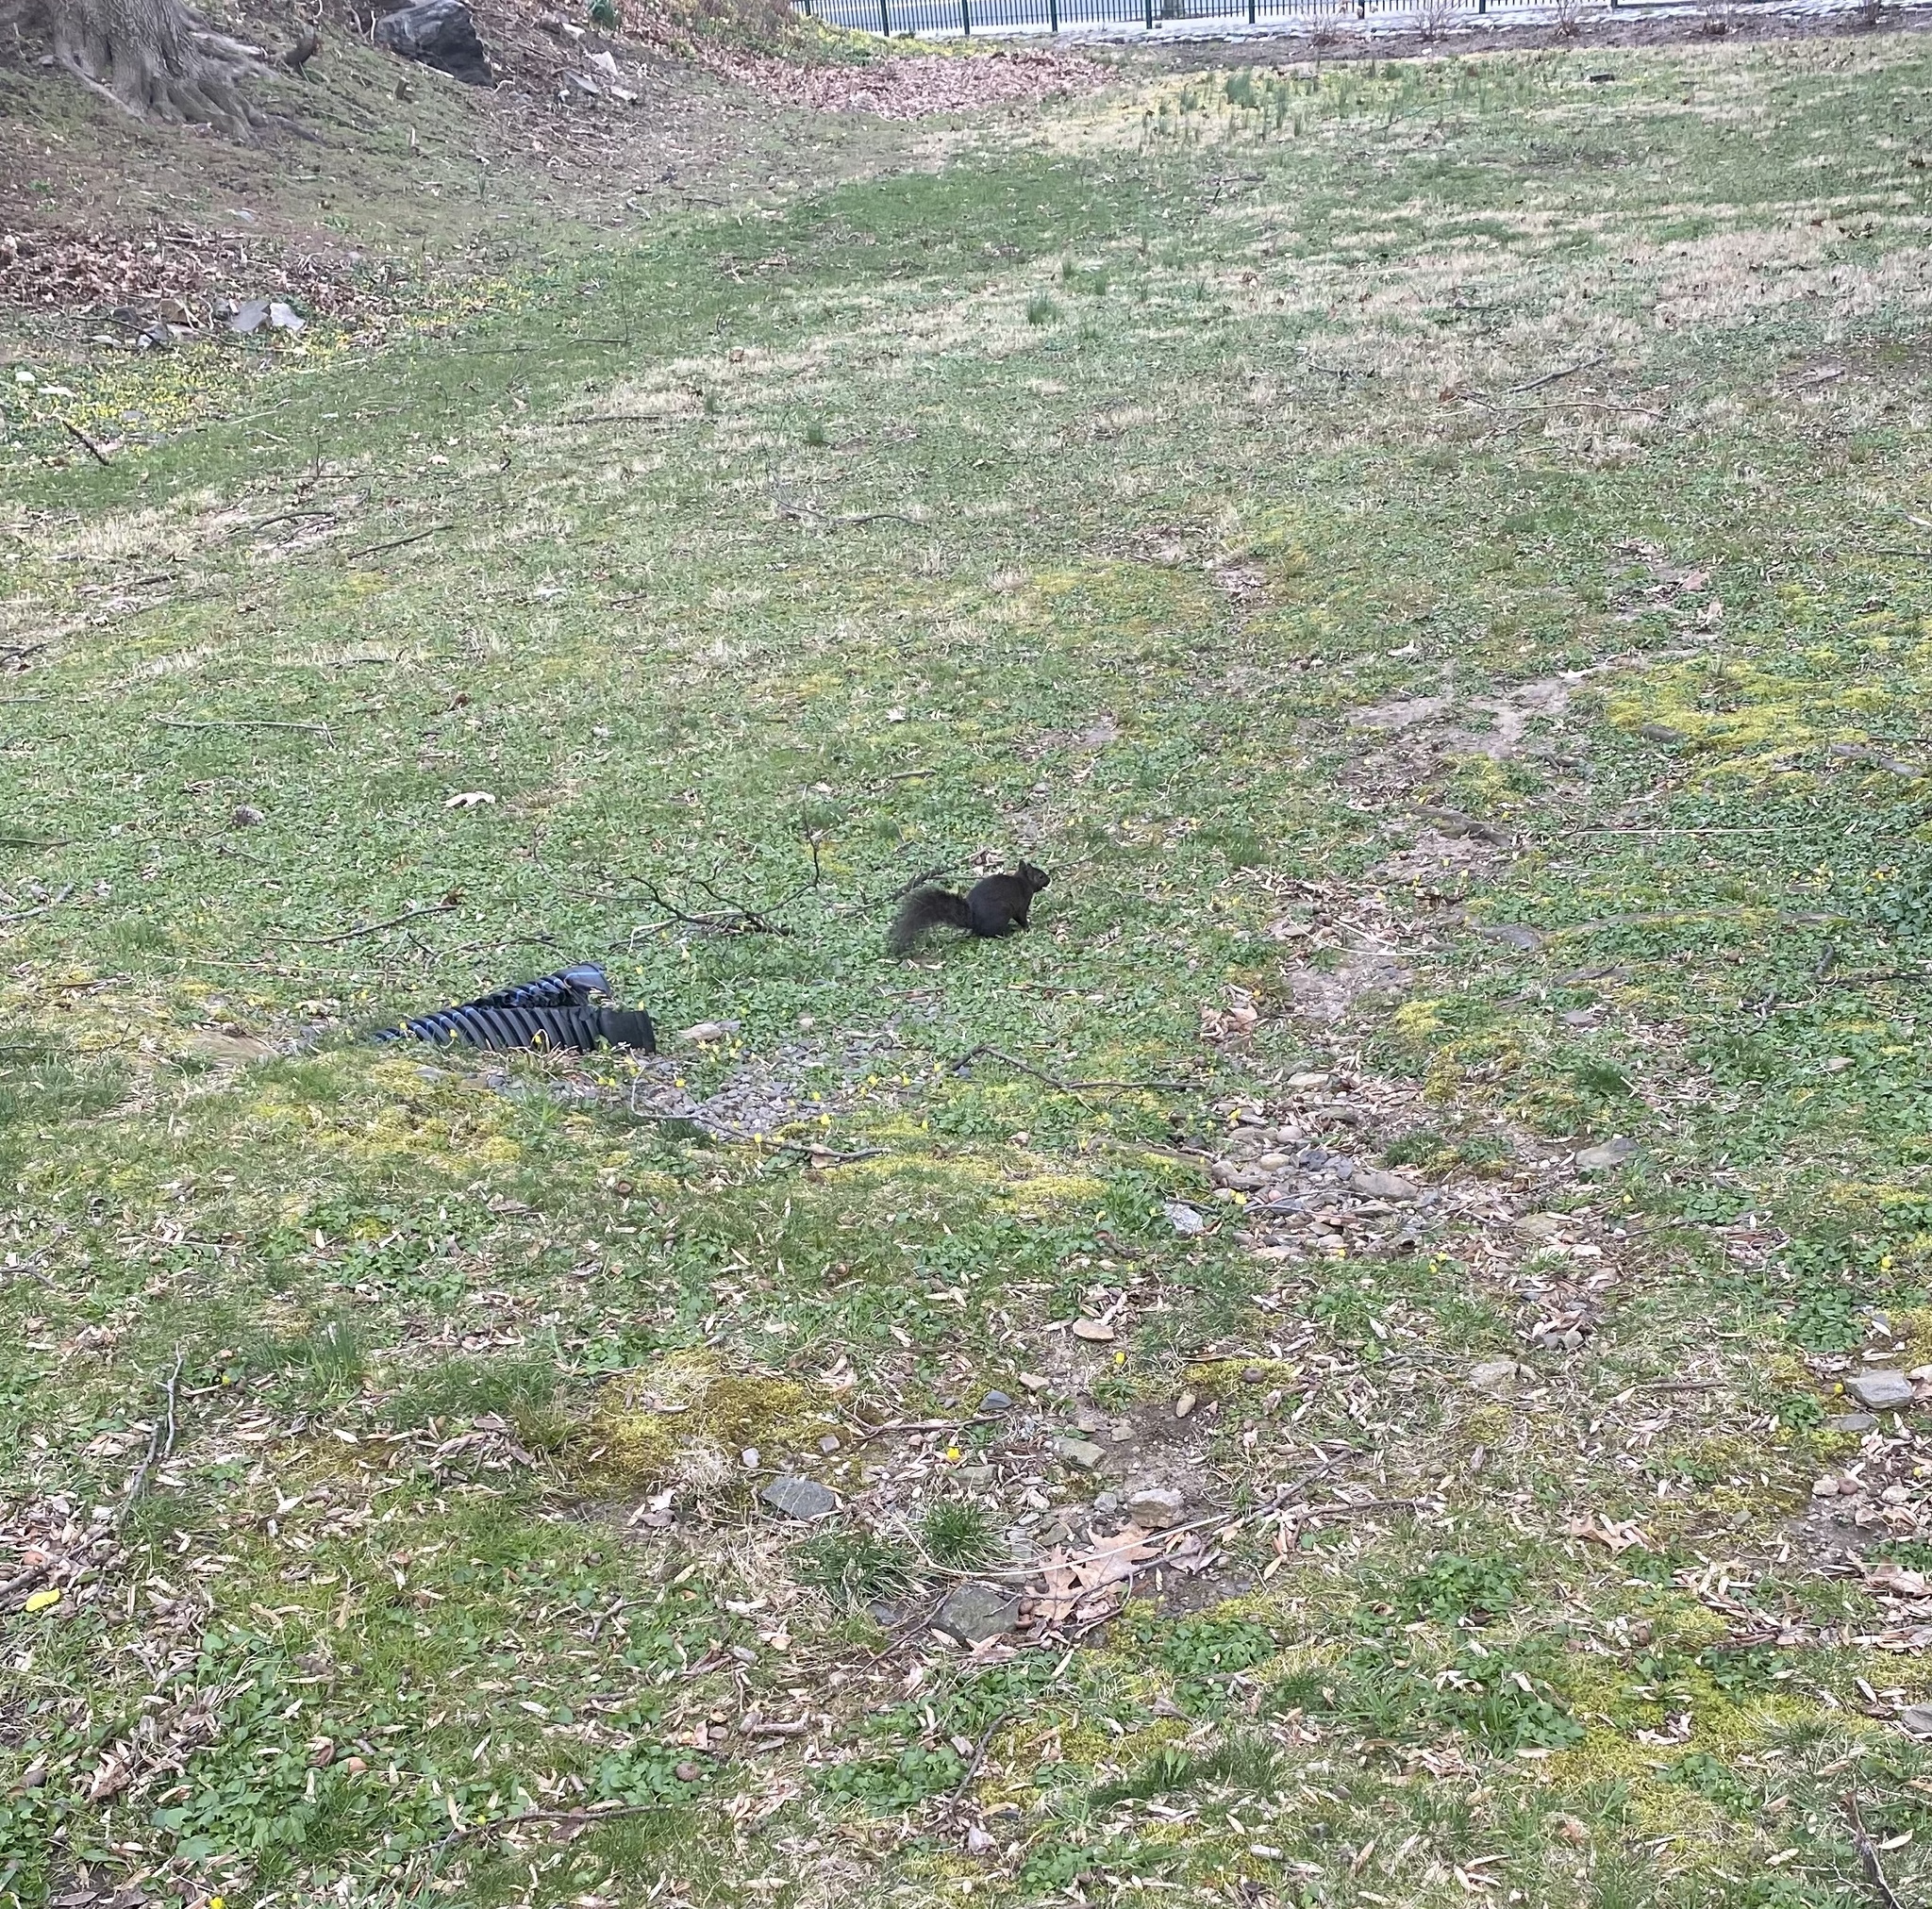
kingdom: Animalia
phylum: Chordata
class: Mammalia
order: Rodentia
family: Sciuridae
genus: Sciurus
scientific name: Sciurus carolinensis
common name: Eastern gray squirrel
